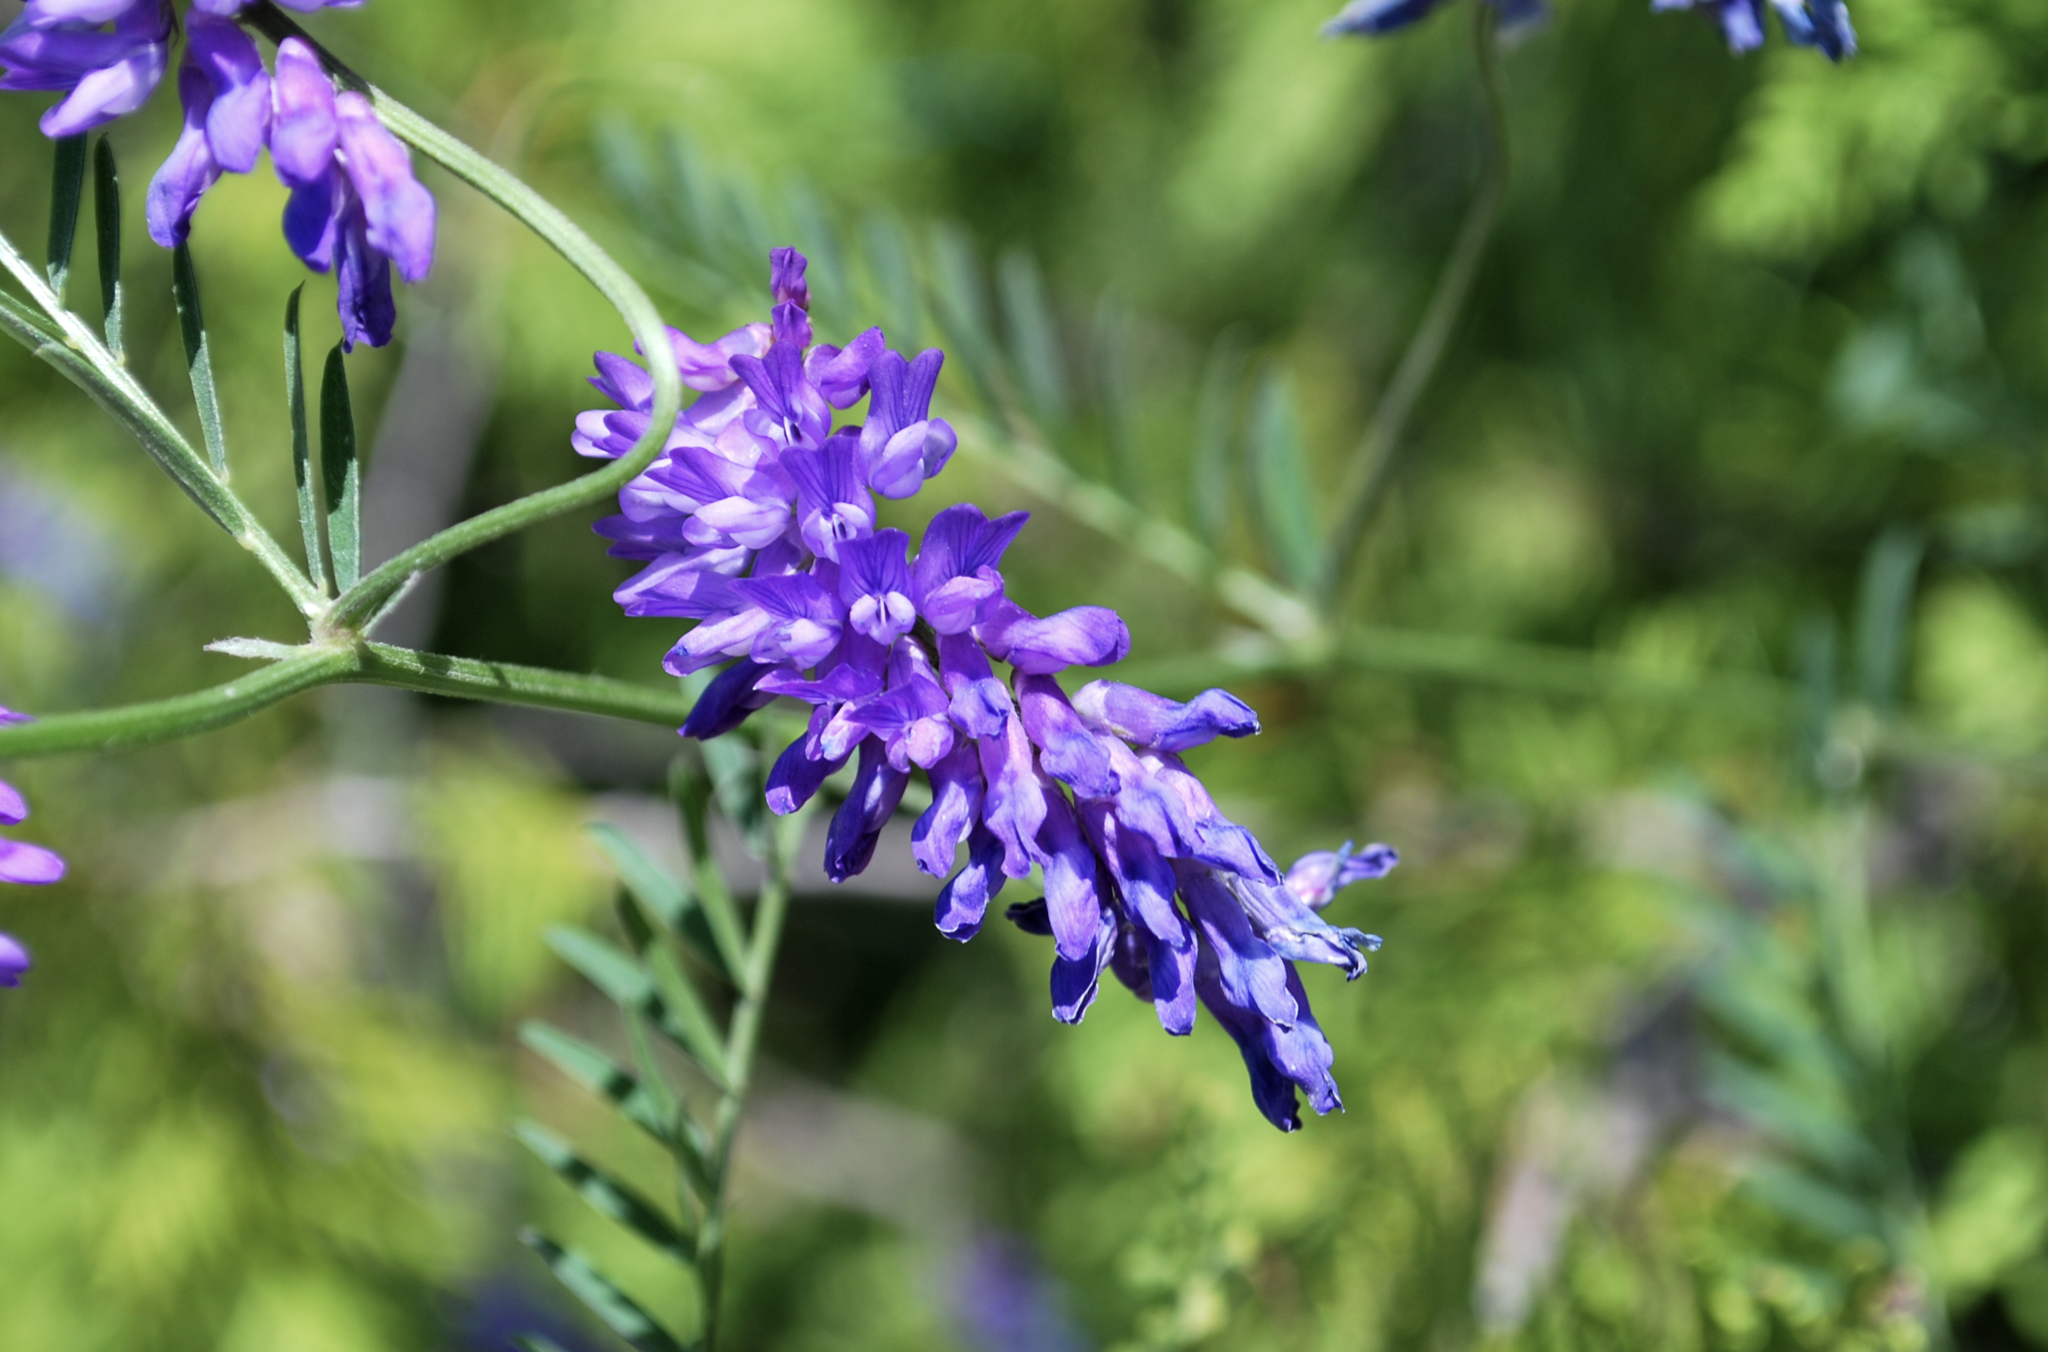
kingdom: Plantae
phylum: Tracheophyta
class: Magnoliopsida
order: Fabales
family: Fabaceae
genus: Vicia
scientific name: Vicia cracca
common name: Bird vetch
